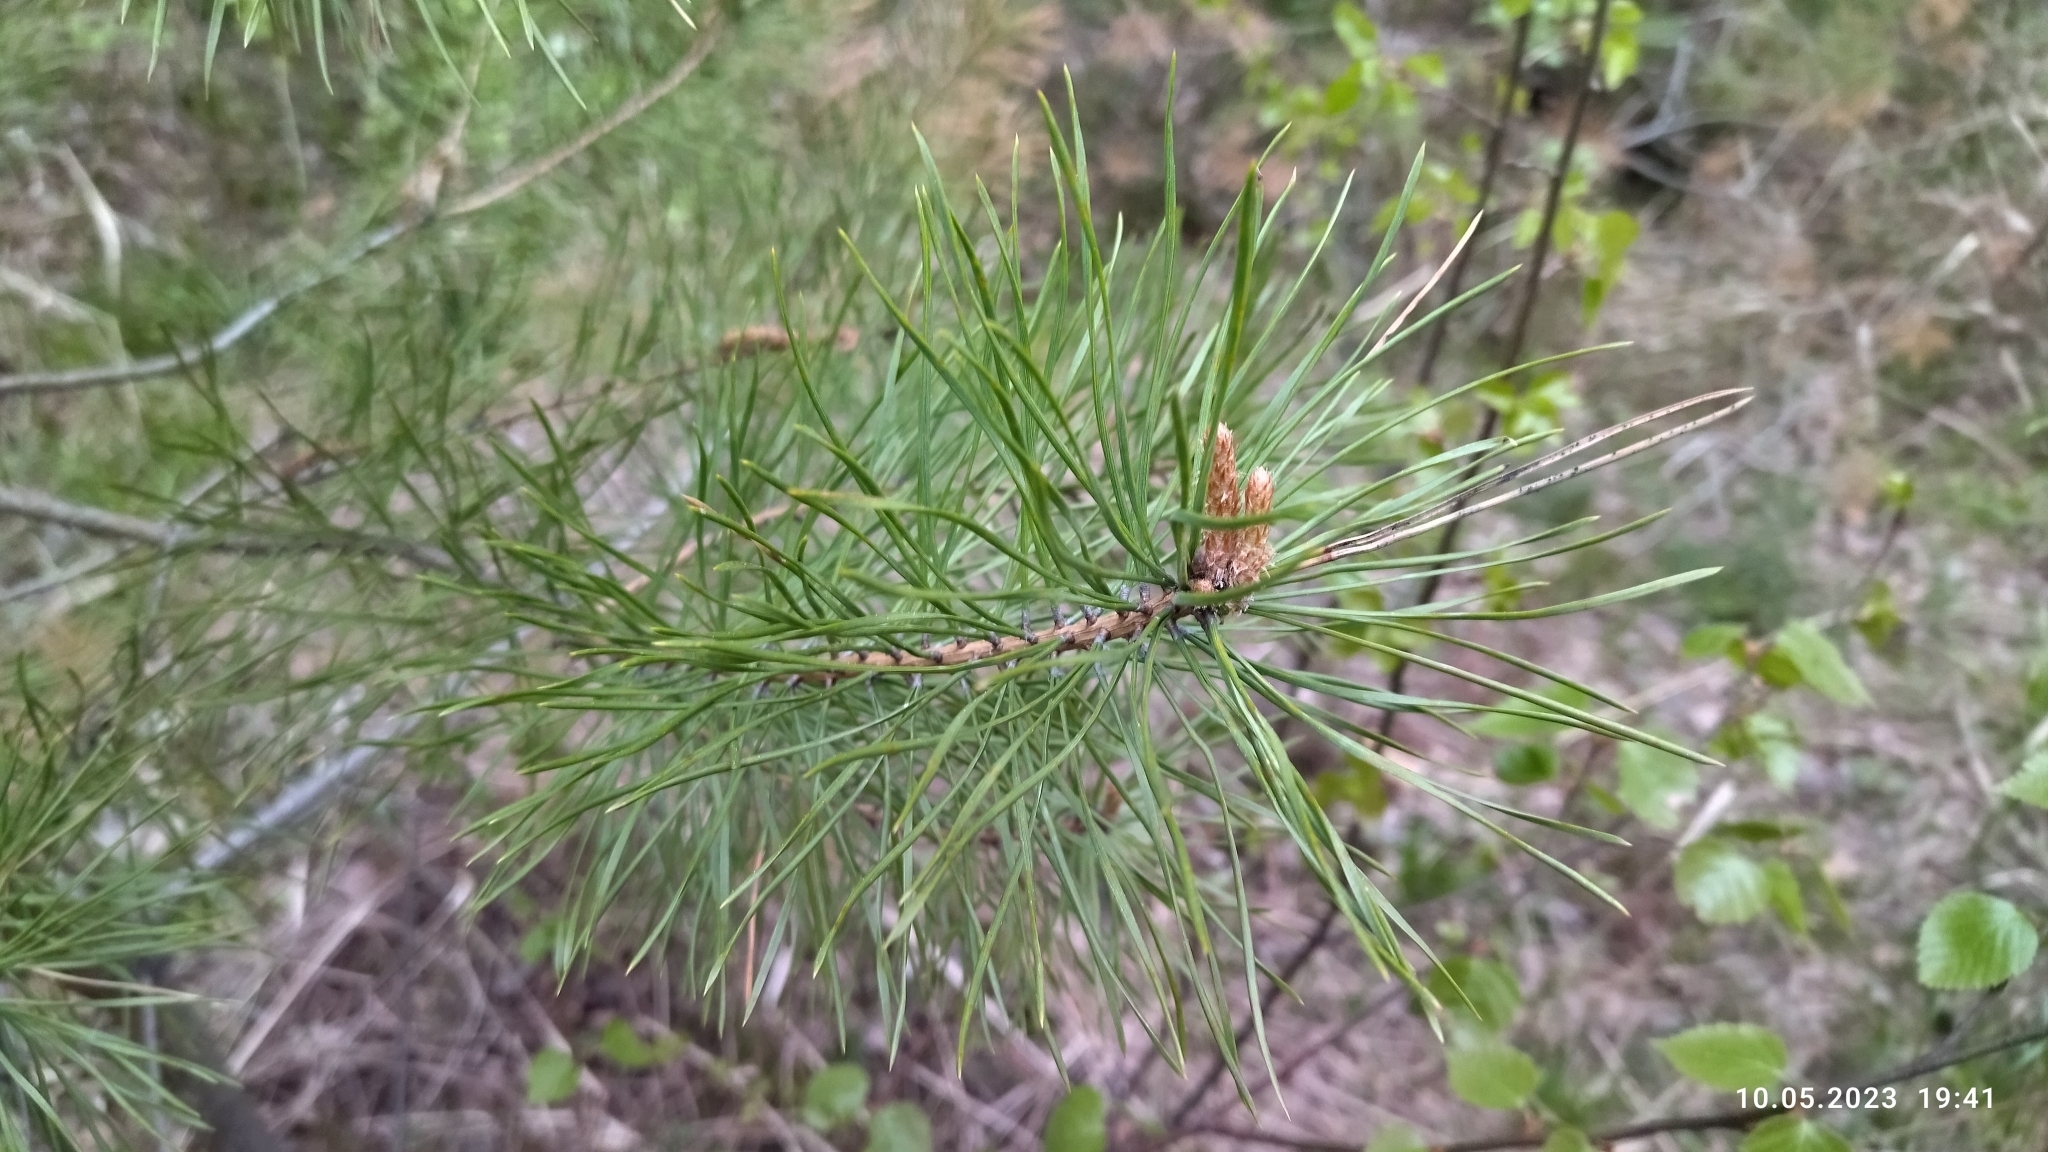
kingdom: Plantae
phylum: Tracheophyta
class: Pinopsida
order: Pinales
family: Pinaceae
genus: Pinus
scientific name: Pinus sylvestris
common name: Scots pine
